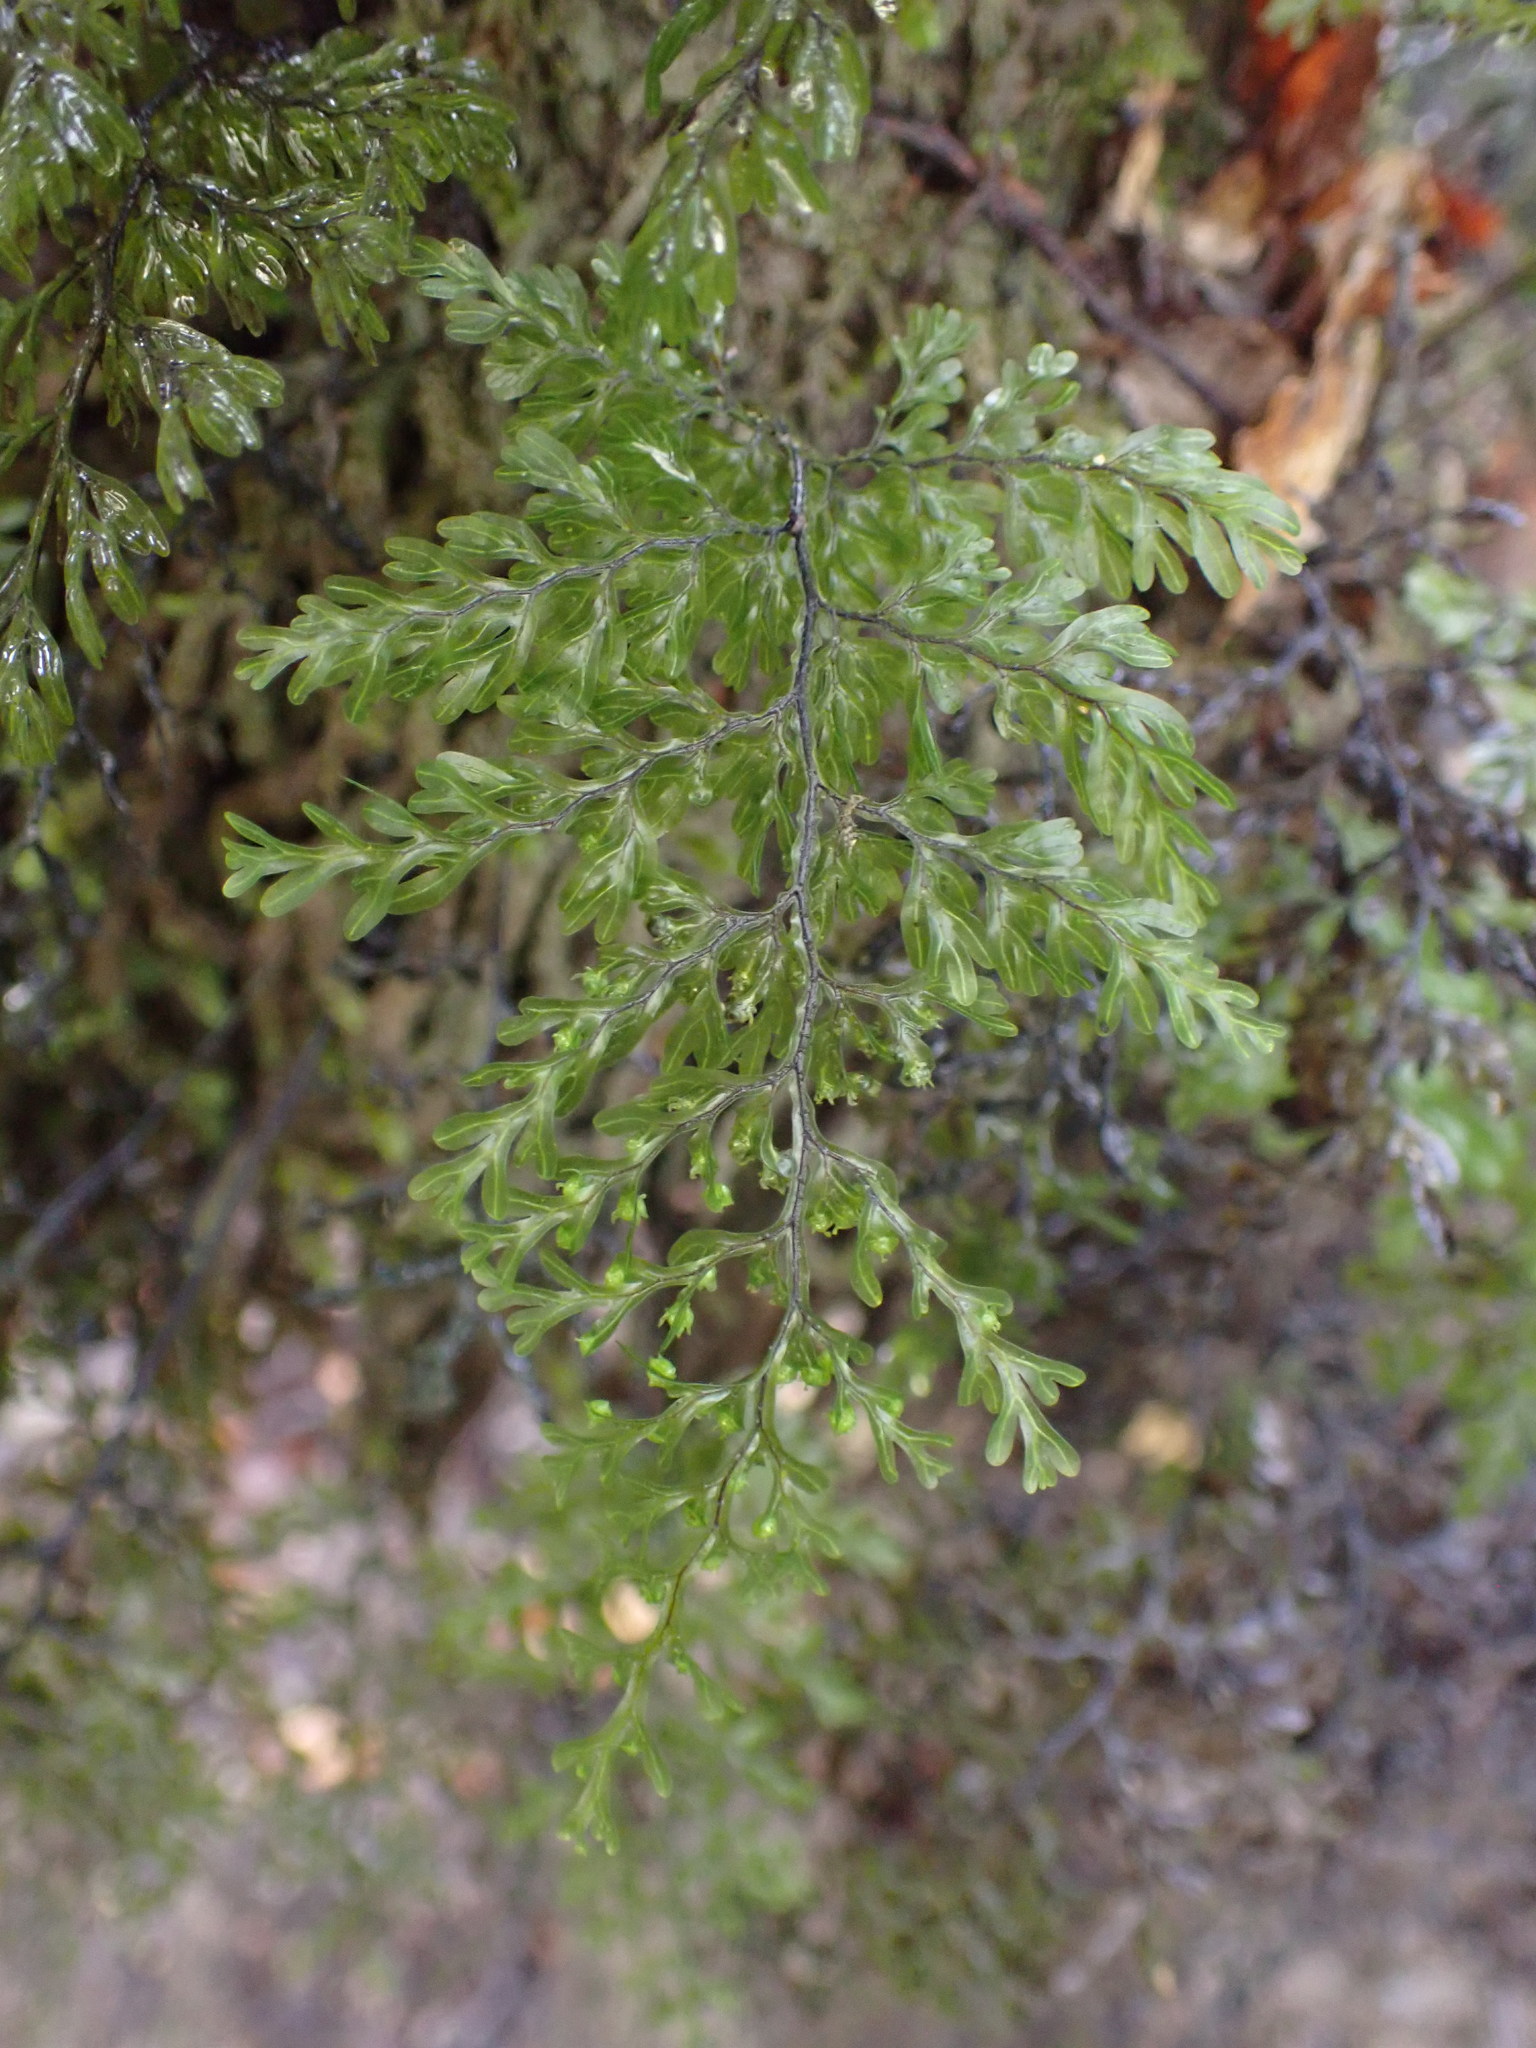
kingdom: Plantae
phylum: Tracheophyta
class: Polypodiopsida
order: Hymenophyllales
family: Hymenophyllaceae
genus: Hymenophyllum
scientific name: Hymenophyllum sanguinolentum
